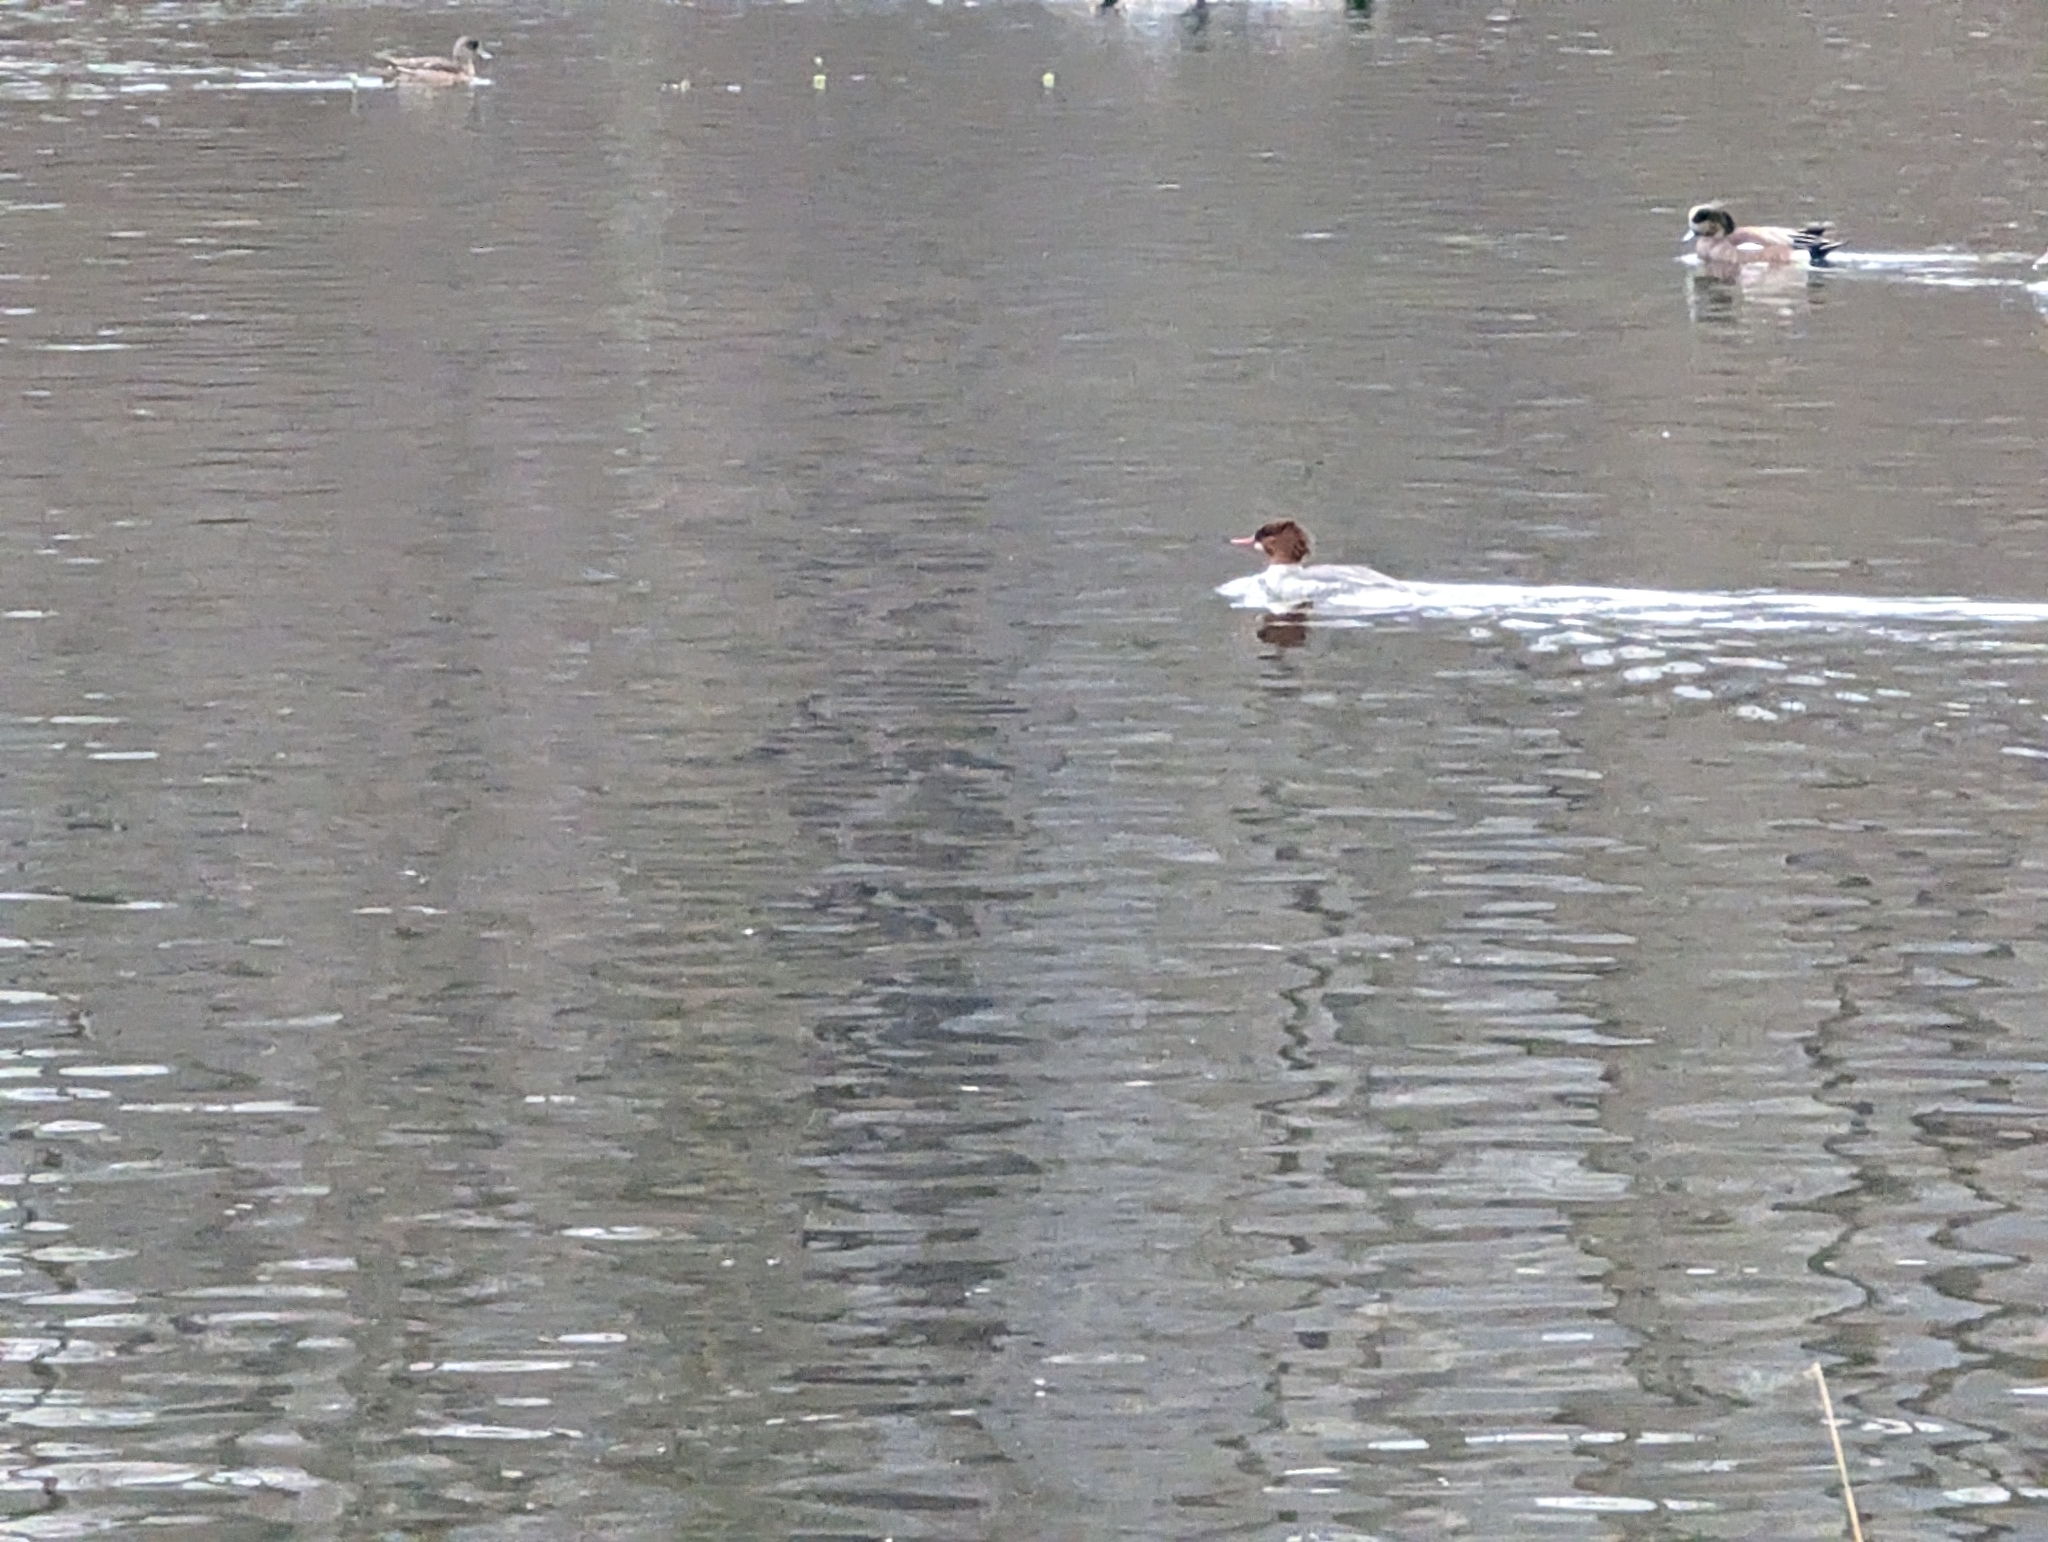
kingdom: Animalia
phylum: Chordata
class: Aves
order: Anseriformes
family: Anatidae
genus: Mergus
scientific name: Mergus merganser
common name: Common merganser
